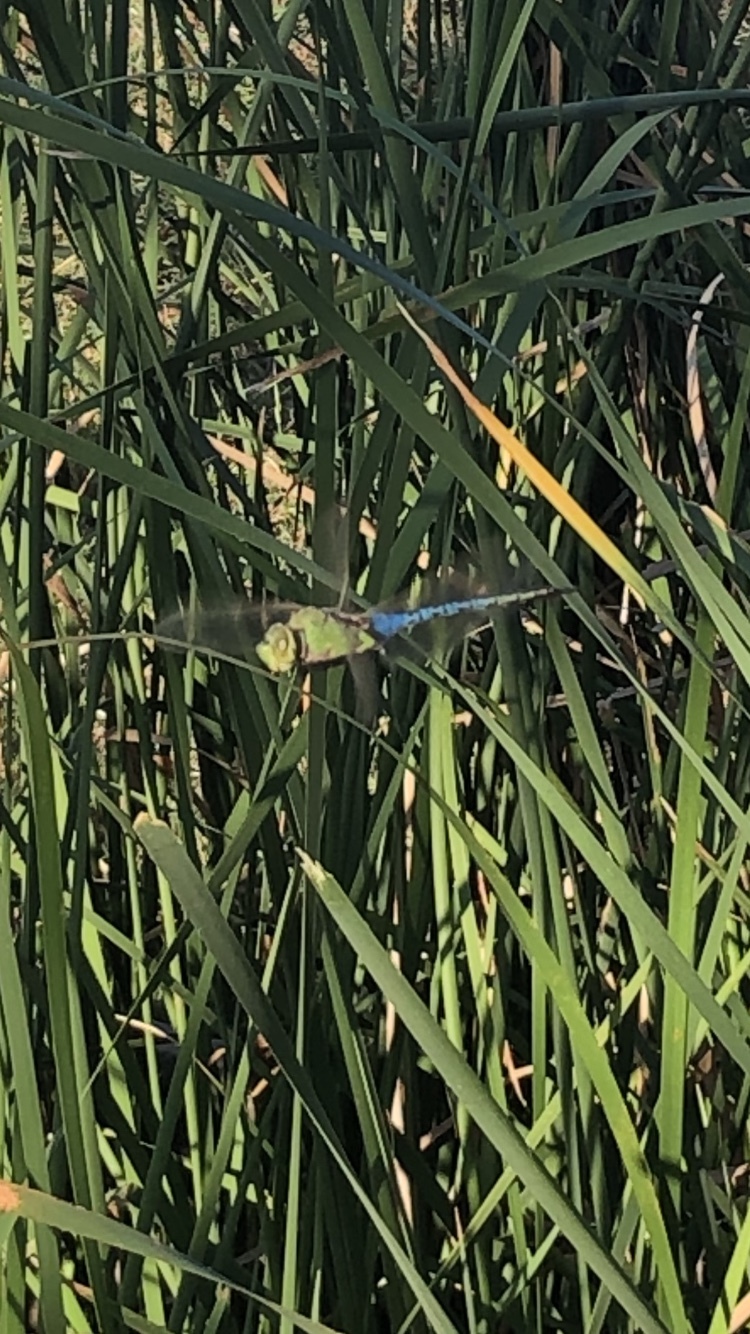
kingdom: Animalia
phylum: Arthropoda
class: Insecta
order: Odonata
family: Aeshnidae
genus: Anax
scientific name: Anax junius
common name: Common green darner
